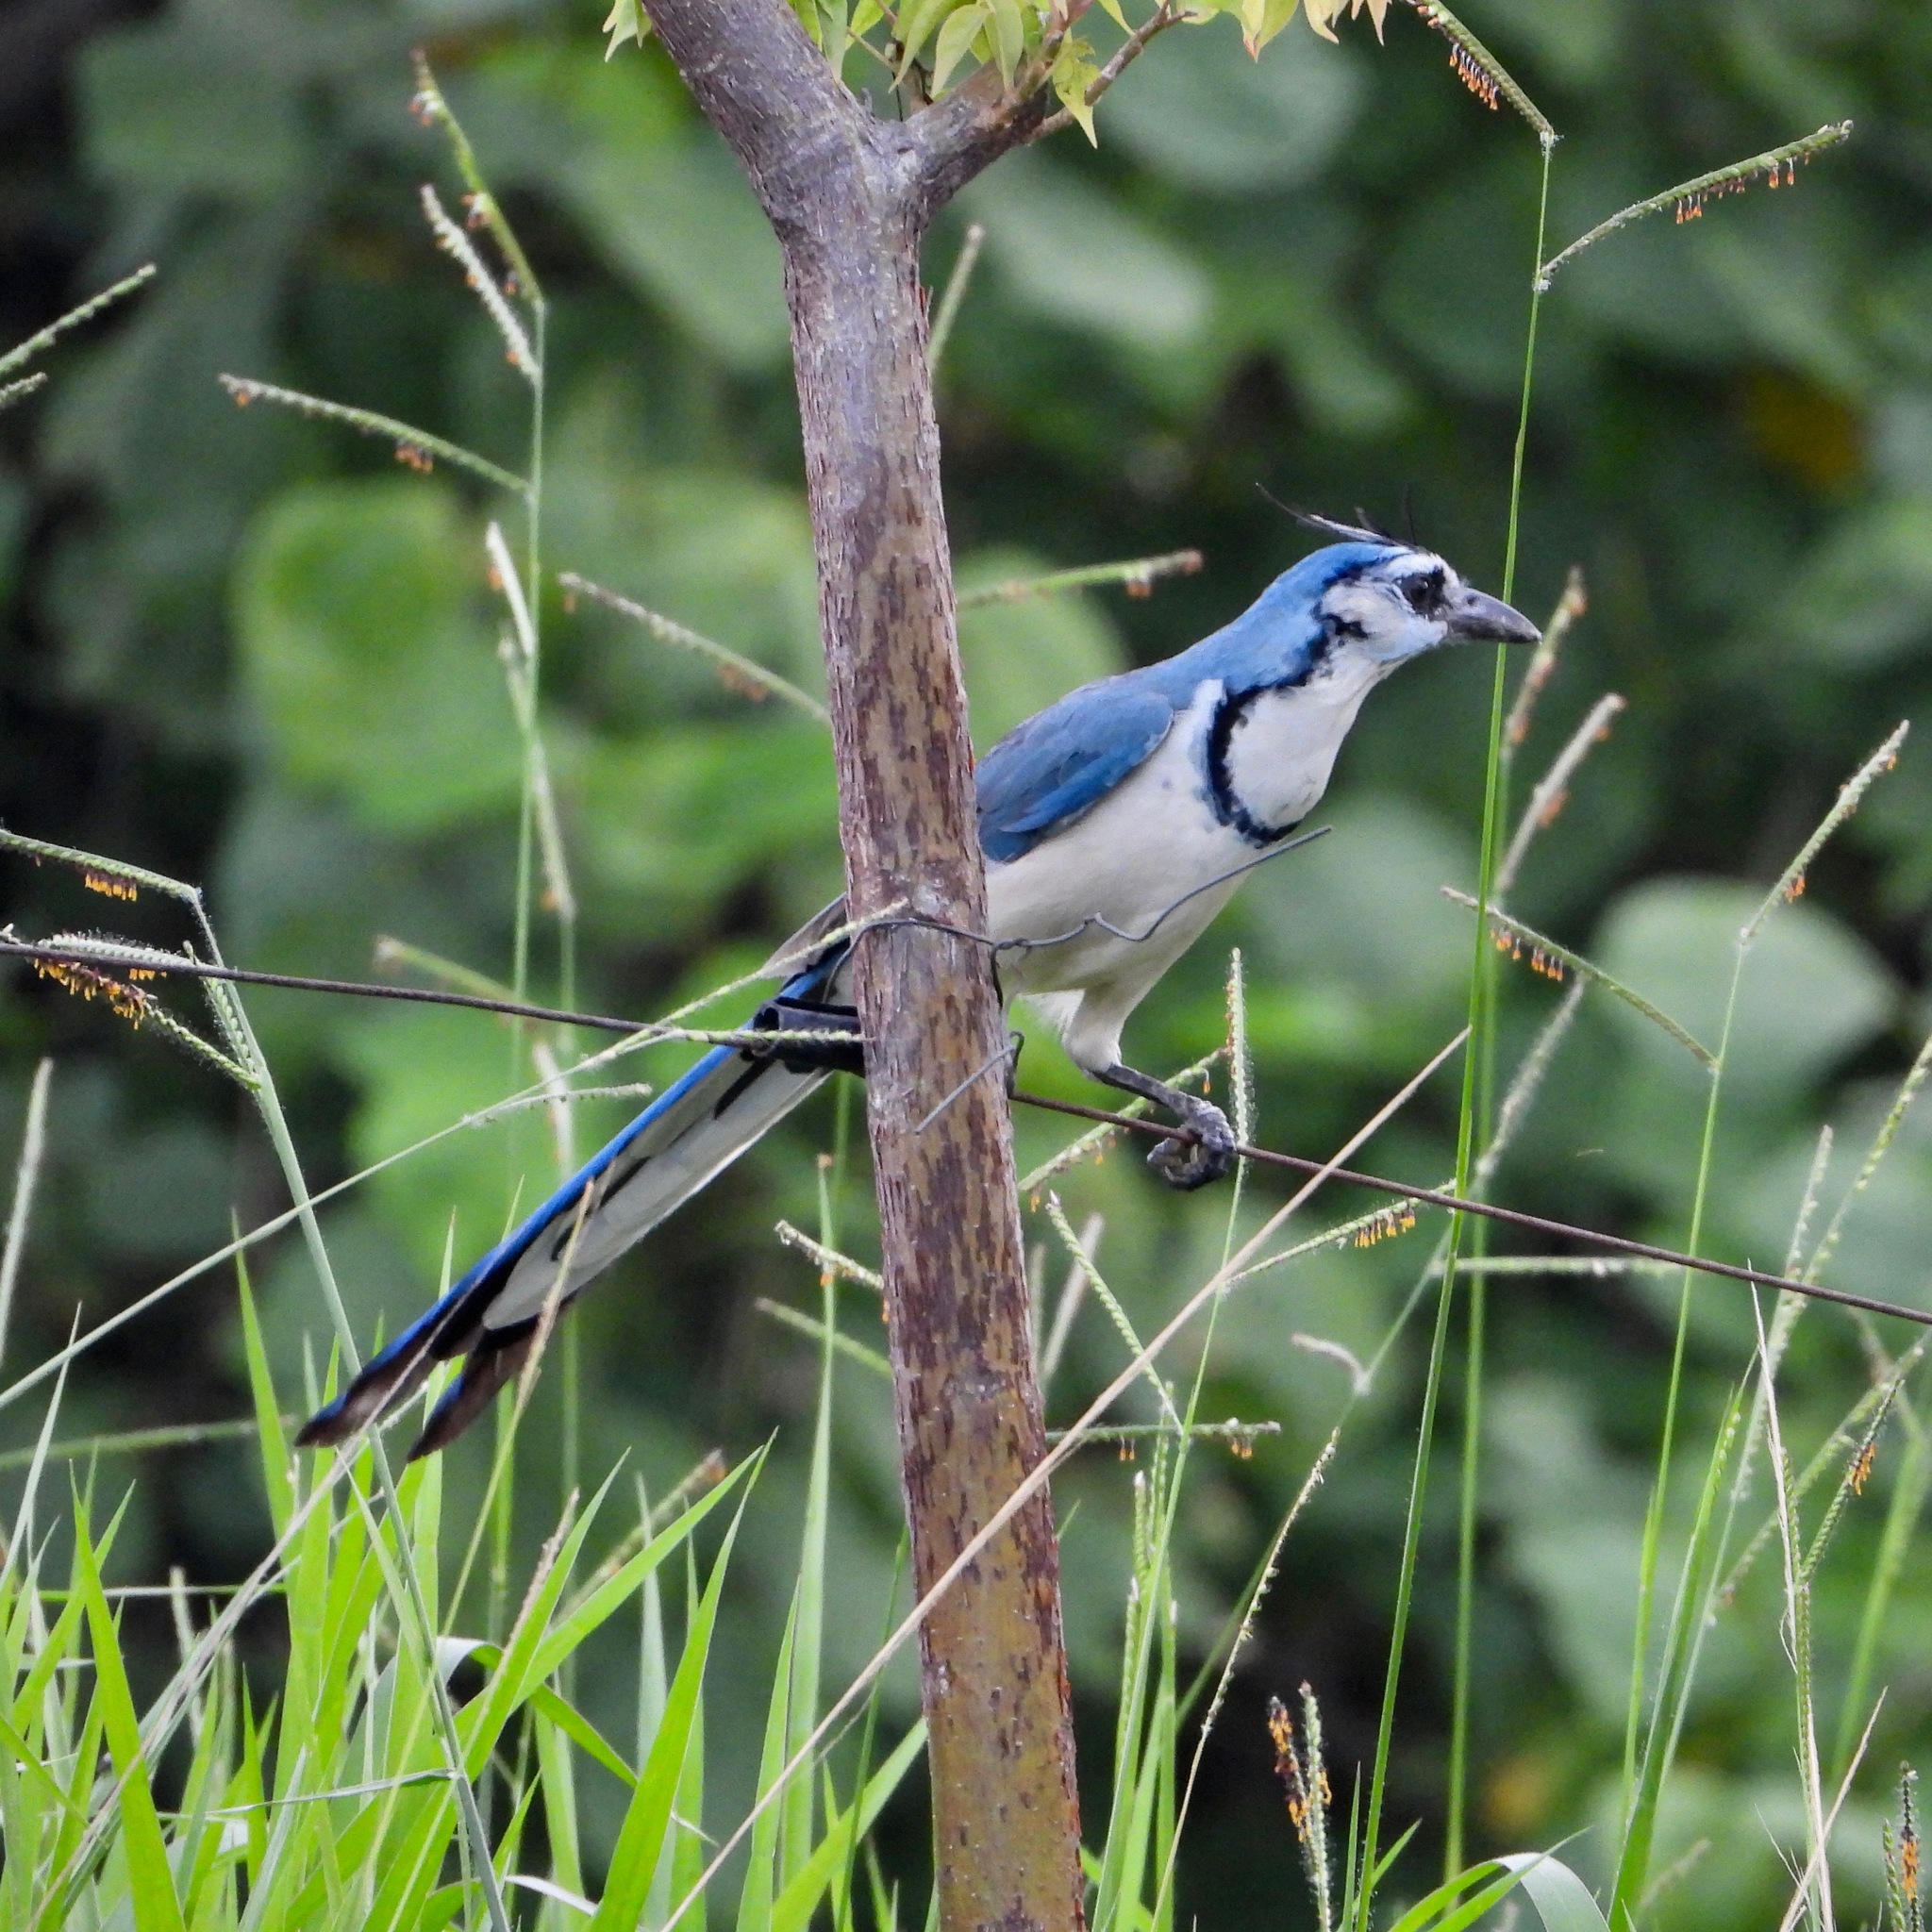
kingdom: Animalia
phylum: Chordata
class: Aves
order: Passeriformes
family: Corvidae
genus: Calocitta
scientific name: Calocitta formosa
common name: White-throated magpie-jay
